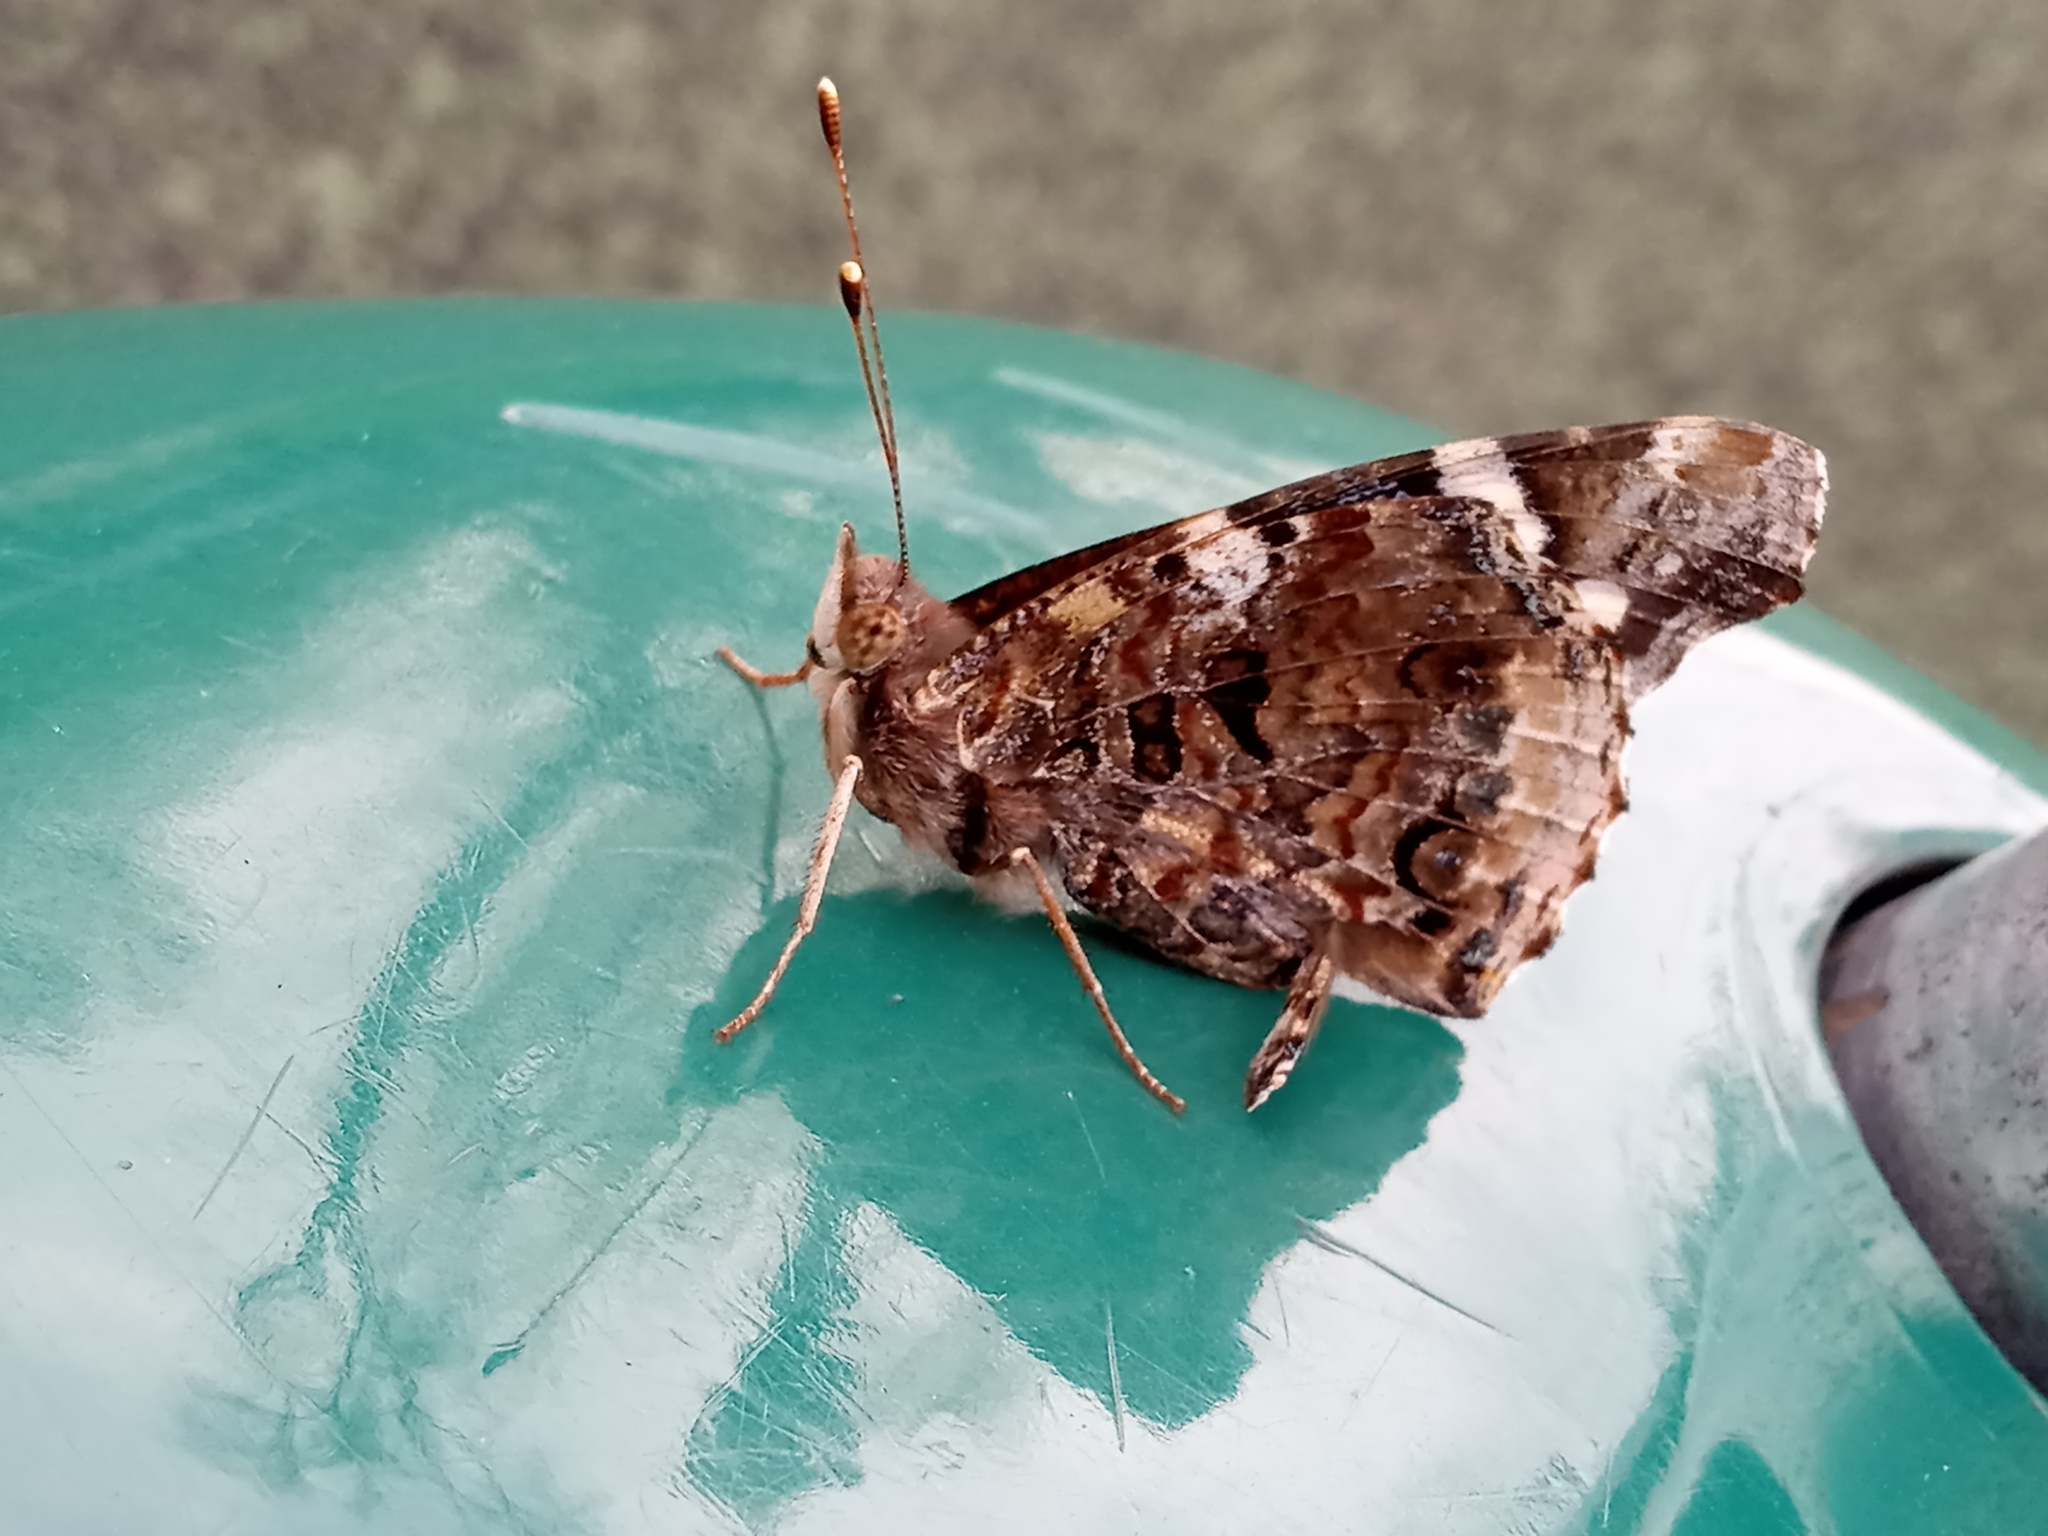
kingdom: Animalia
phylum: Arthropoda
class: Insecta
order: Lepidoptera
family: Nymphalidae
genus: Vanessa
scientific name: Vanessa atalanta
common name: Red admiral
